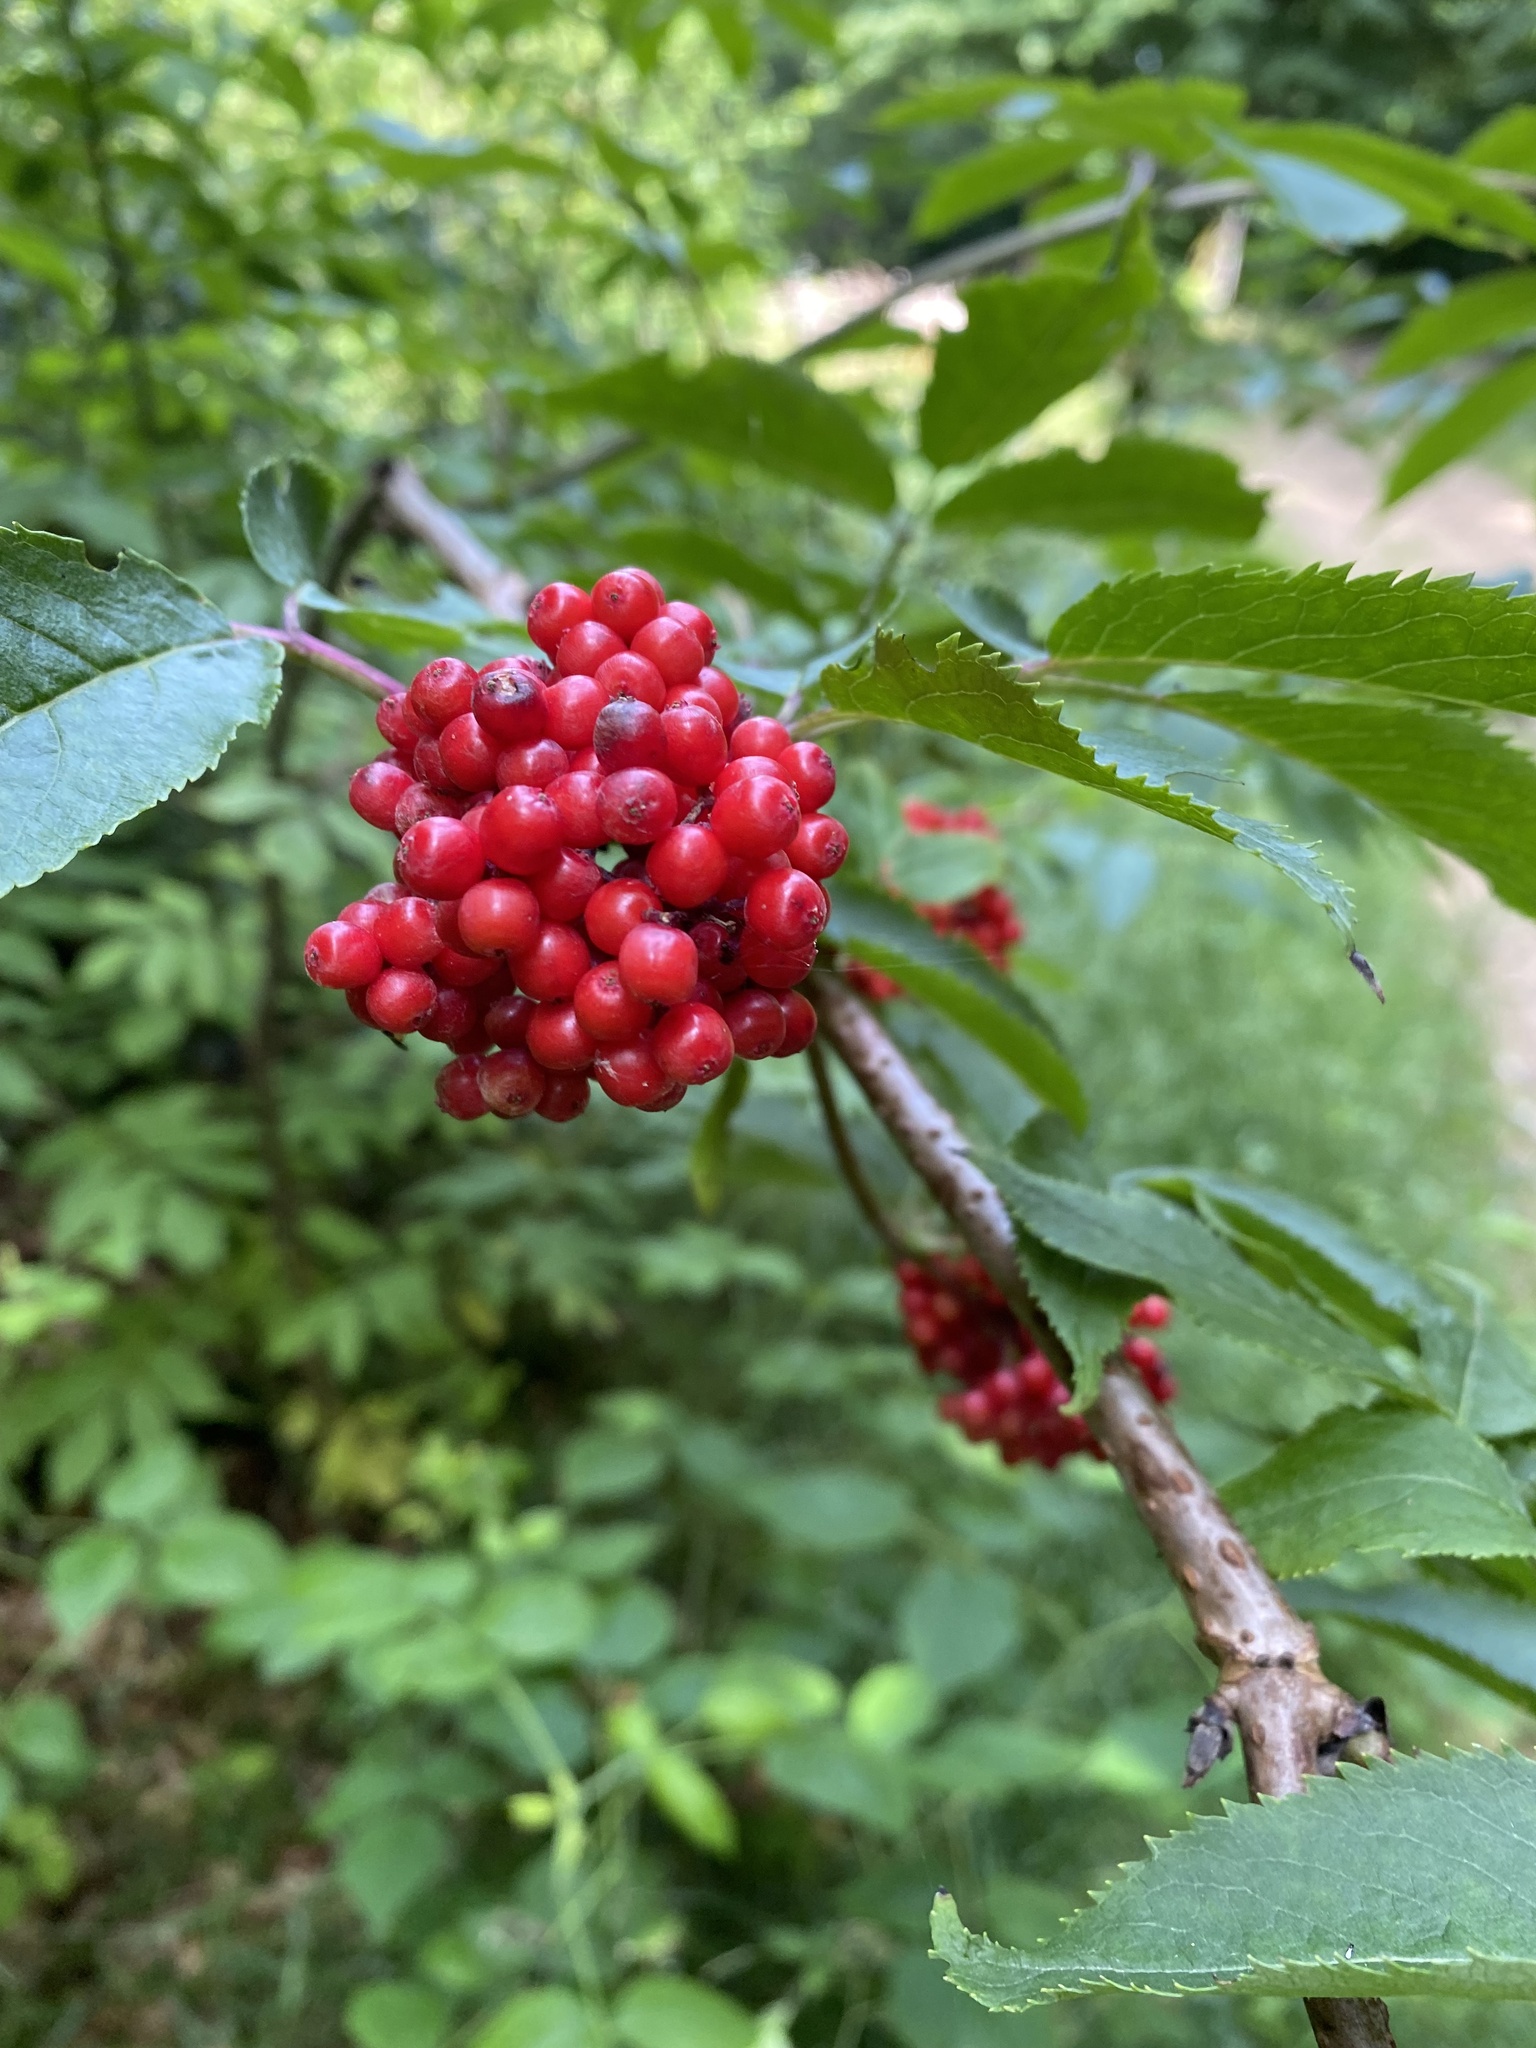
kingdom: Plantae
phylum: Tracheophyta
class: Magnoliopsida
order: Dipsacales
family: Viburnaceae
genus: Sambucus
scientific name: Sambucus racemosa
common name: Red-berried elder
